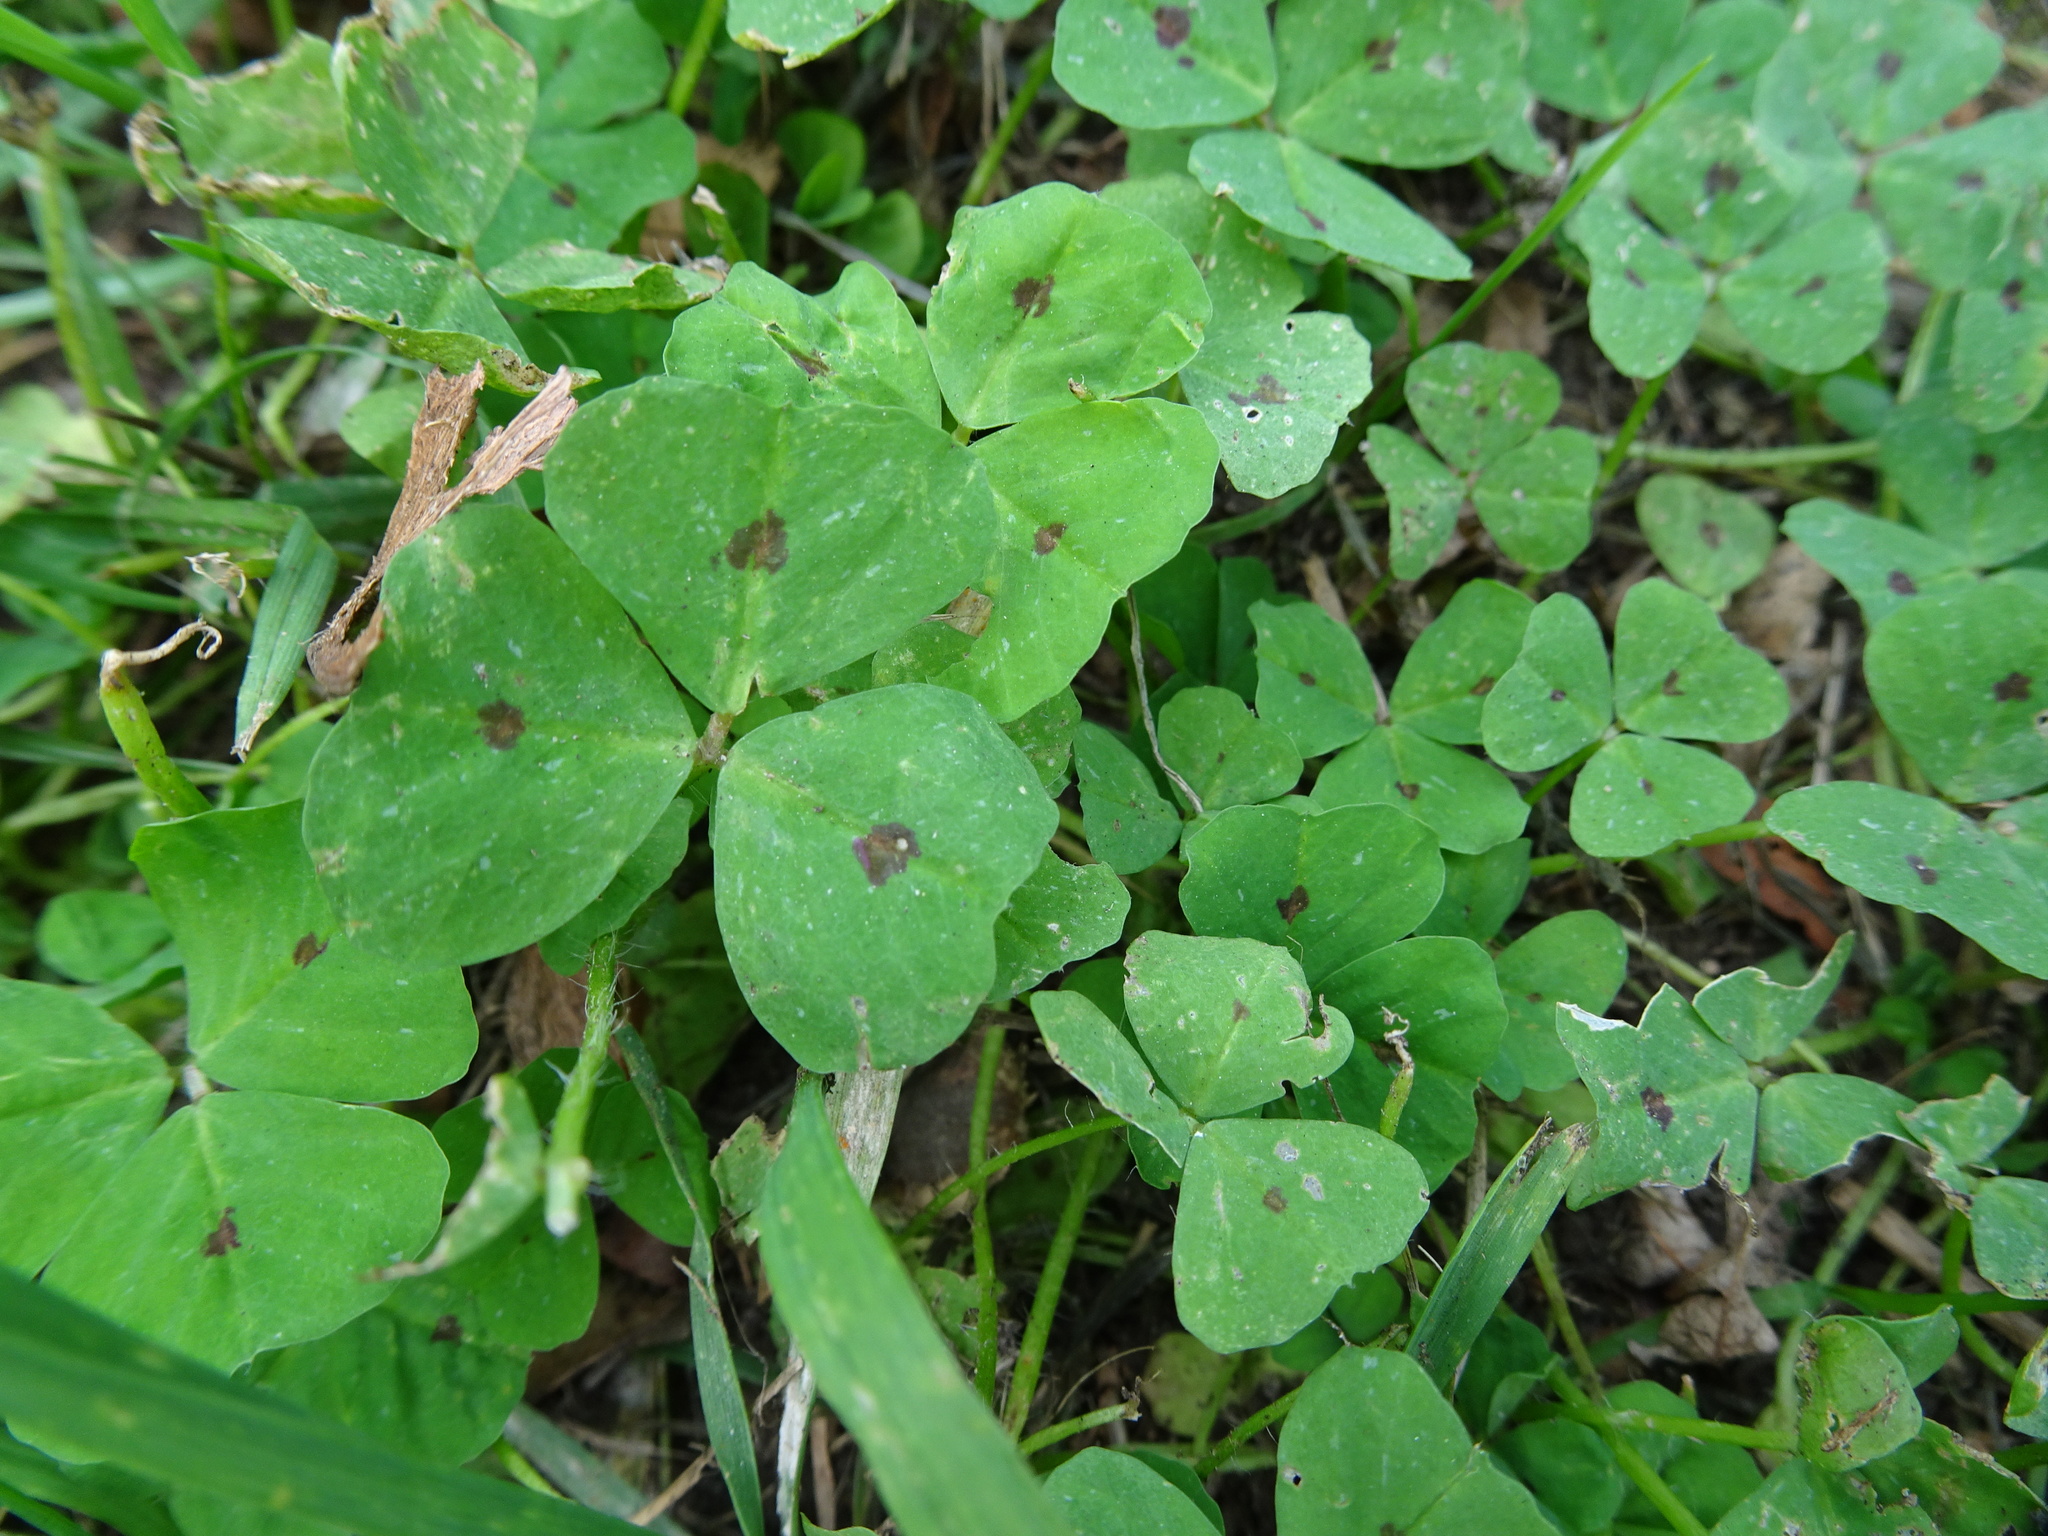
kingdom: Plantae
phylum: Tracheophyta
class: Magnoliopsida
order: Fabales
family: Fabaceae
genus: Medicago
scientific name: Medicago arabica
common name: Spotted medick
